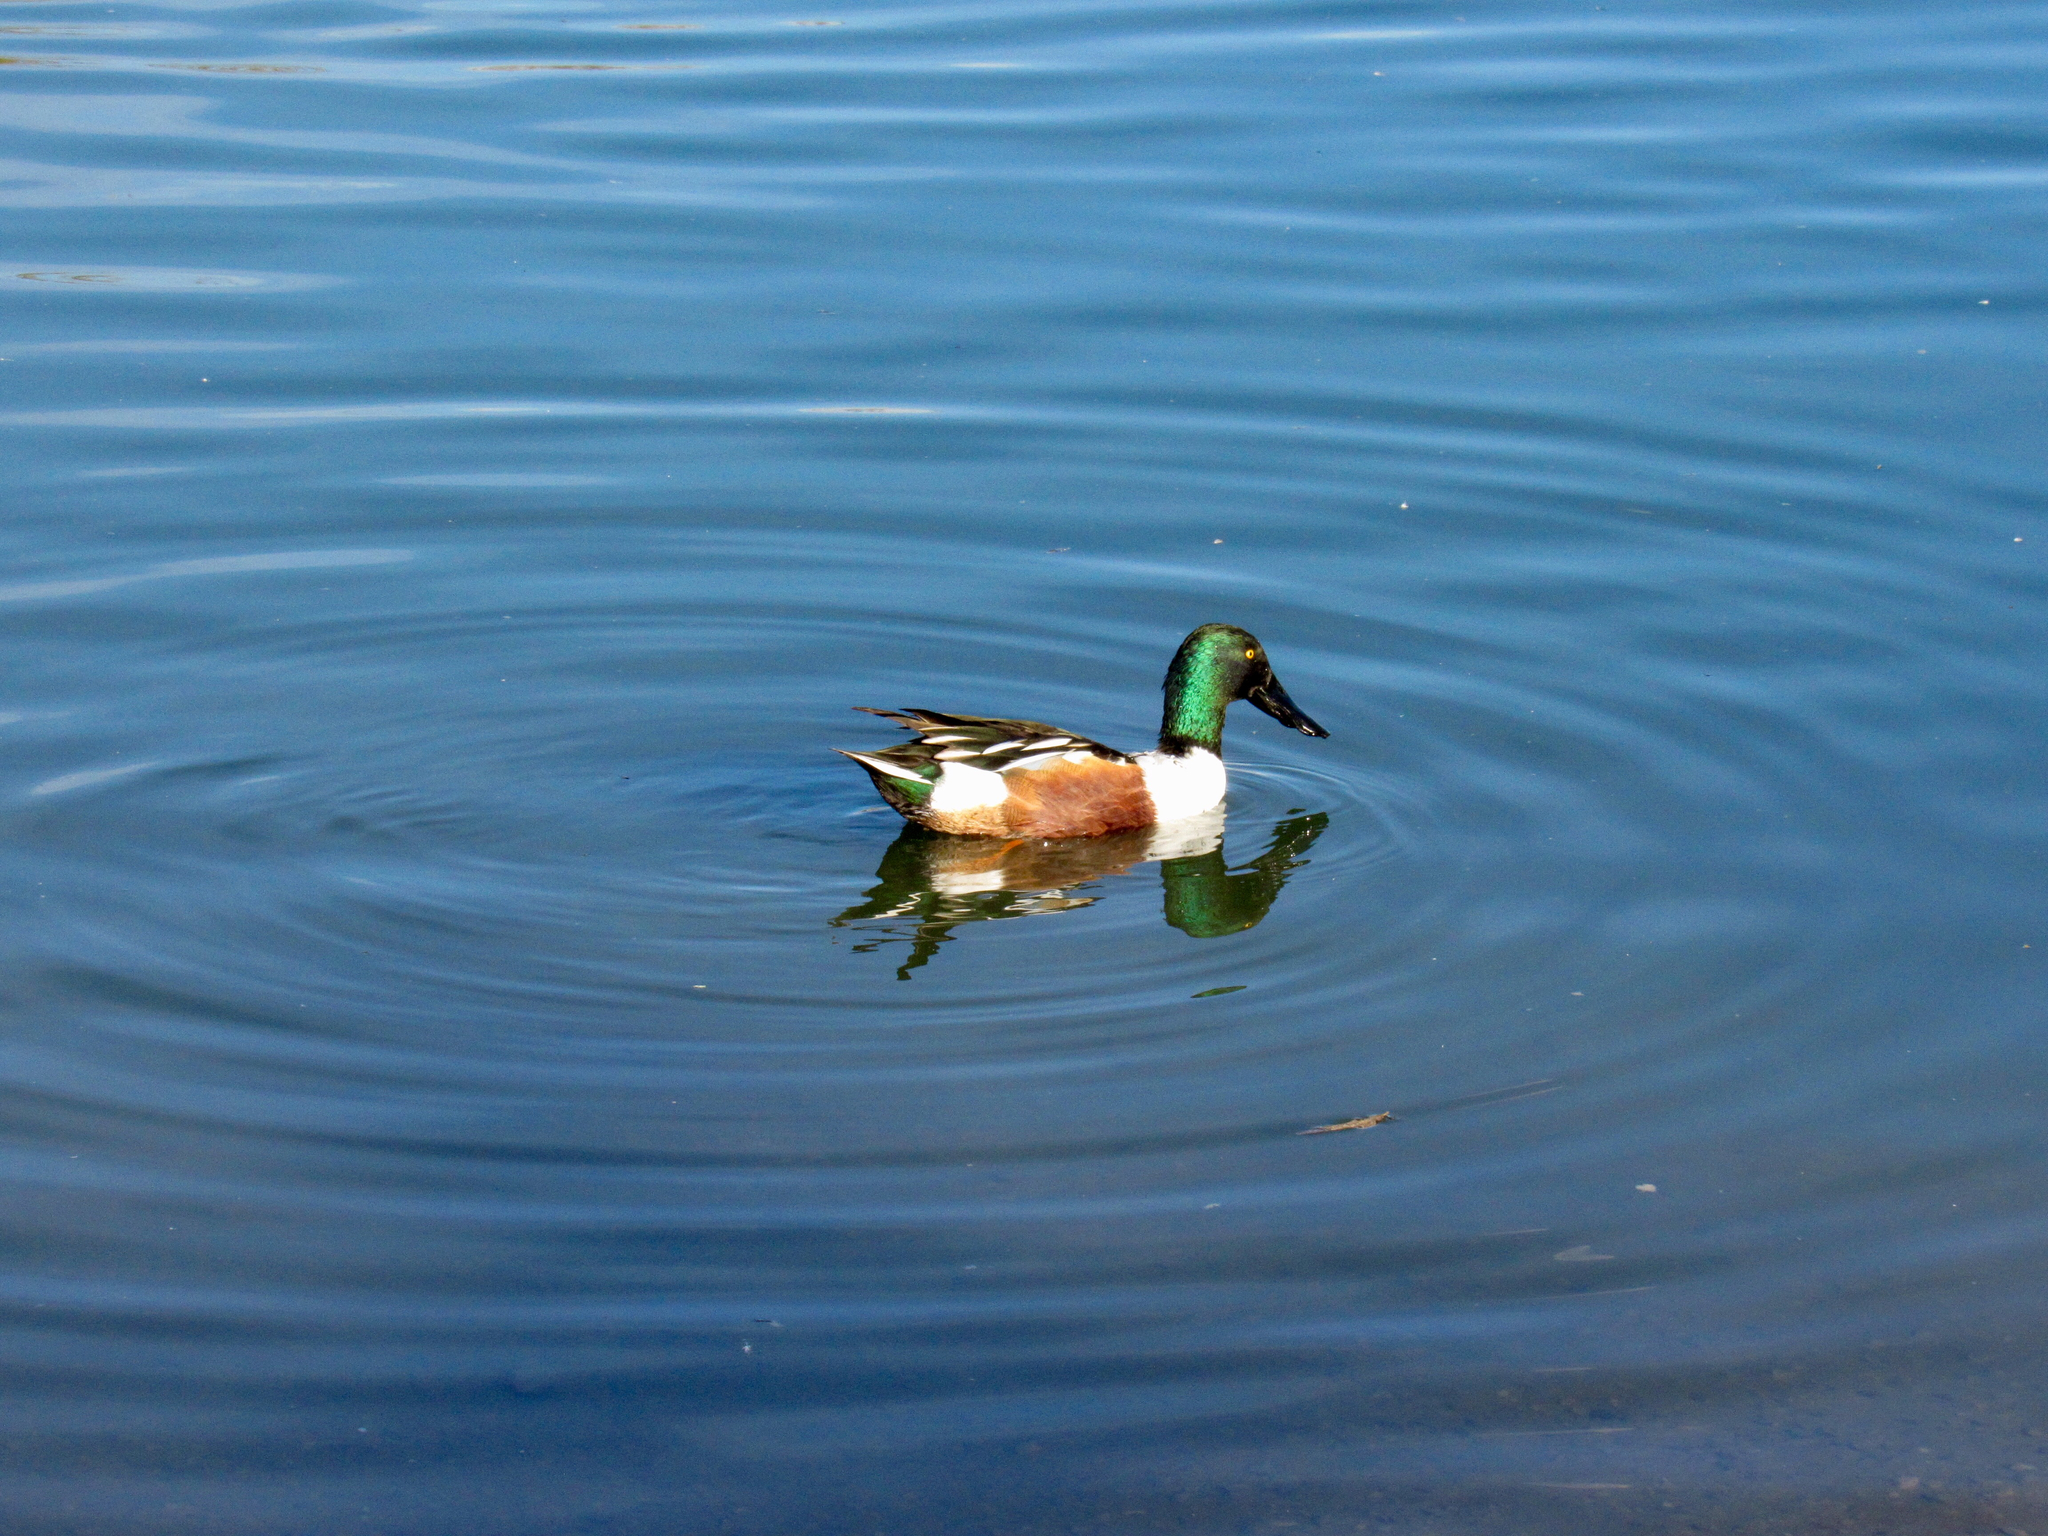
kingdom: Animalia
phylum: Chordata
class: Aves
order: Anseriformes
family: Anatidae
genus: Spatula
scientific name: Spatula clypeata
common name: Northern shoveler
